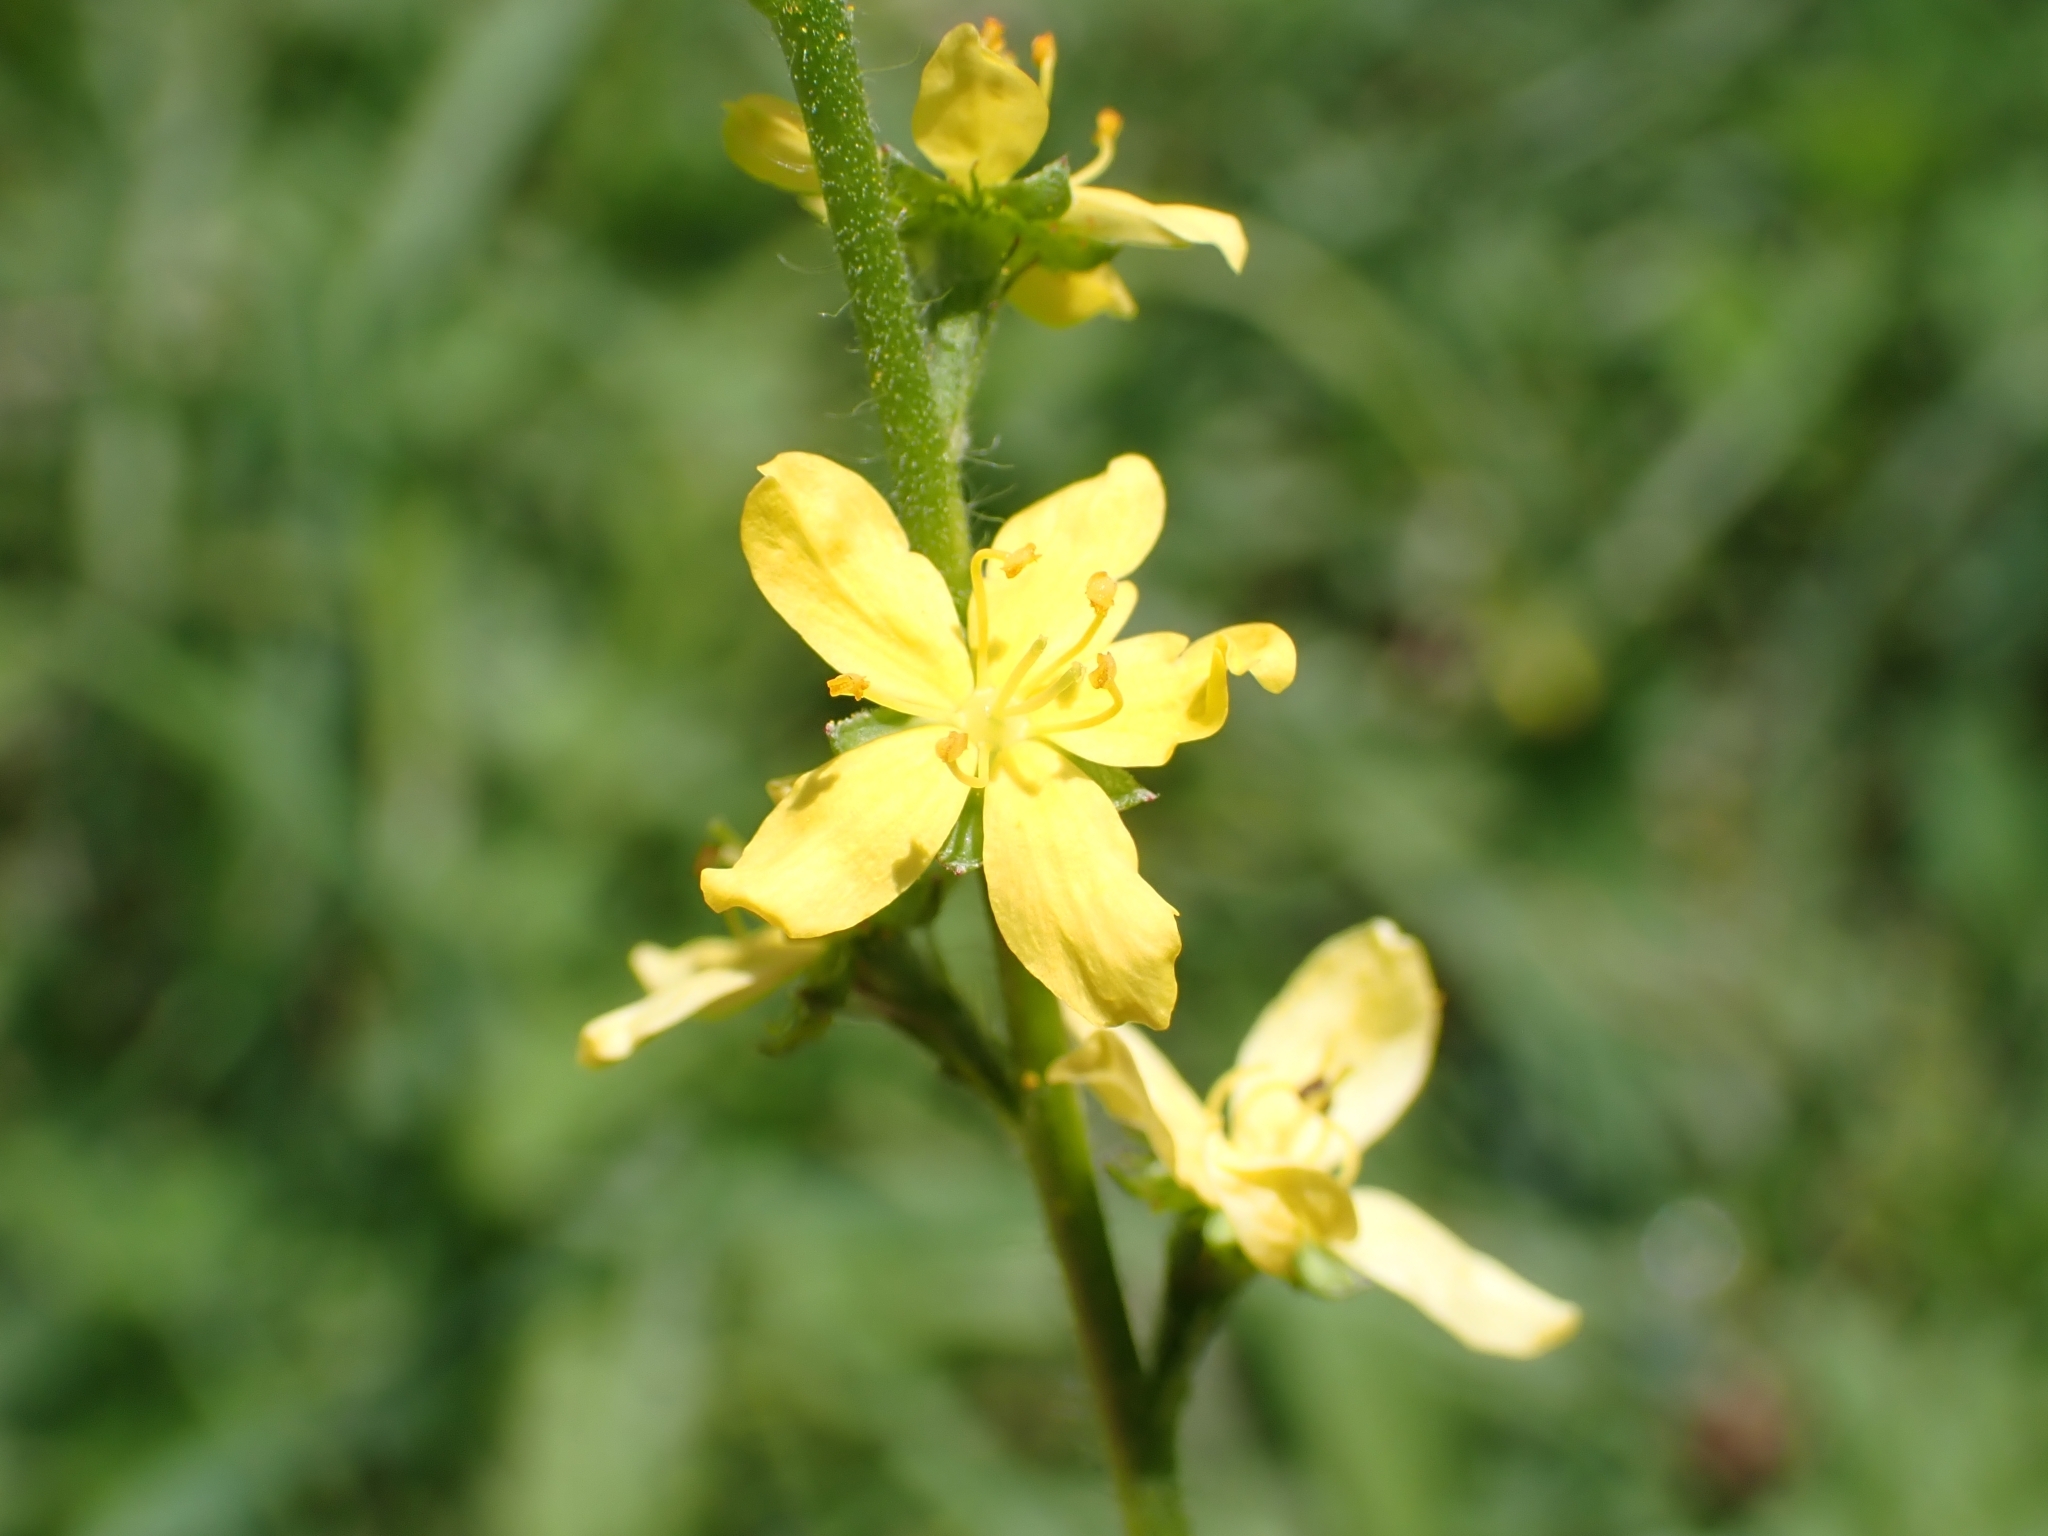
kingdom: Plantae
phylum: Tracheophyta
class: Magnoliopsida
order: Rosales
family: Rosaceae
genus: Agrimonia
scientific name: Agrimonia eupatoria
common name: Agrimony
